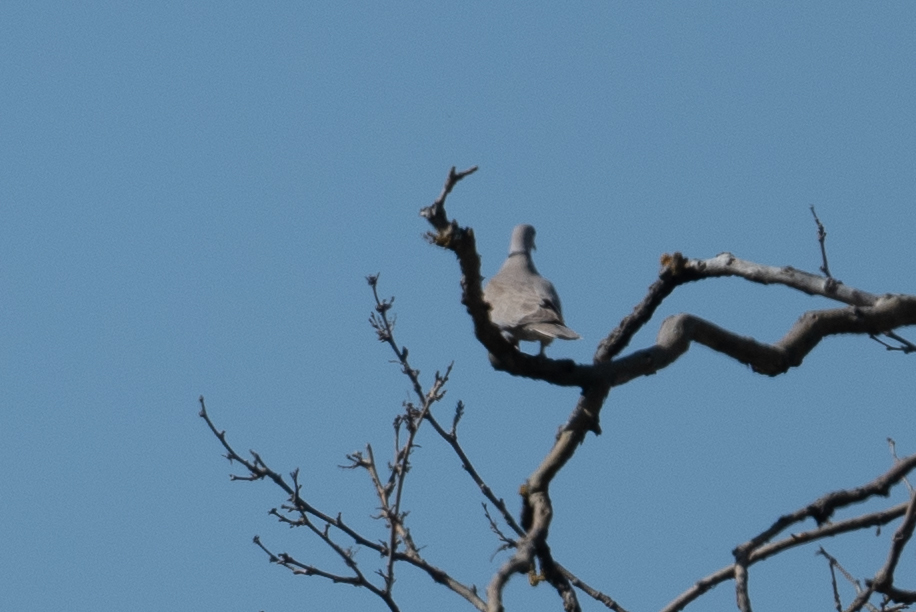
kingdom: Animalia
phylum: Chordata
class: Aves
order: Columbiformes
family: Columbidae
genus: Streptopelia
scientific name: Streptopelia decaocto
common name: Eurasian collared dove
